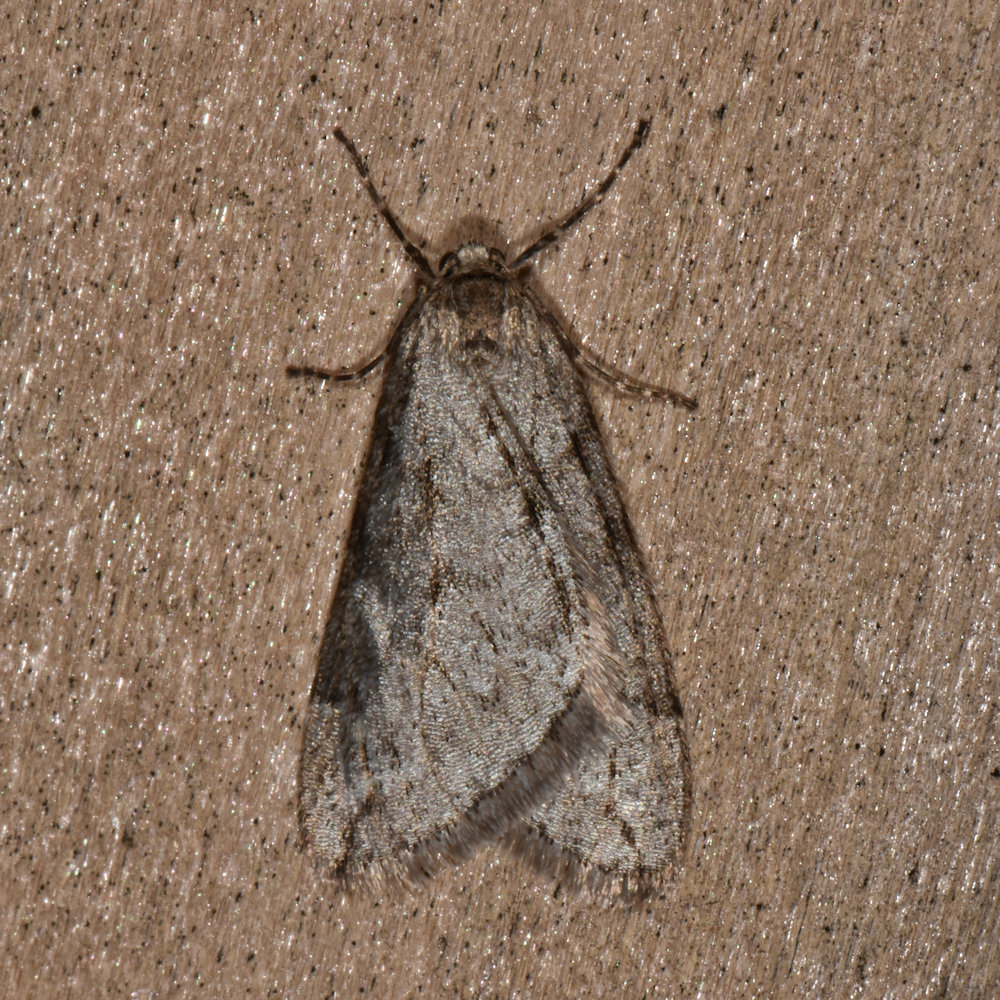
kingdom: Animalia
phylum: Arthropoda
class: Insecta
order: Lepidoptera
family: Geometridae
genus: Paleacrita
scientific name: Paleacrita vernata
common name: Spring cankerworm
